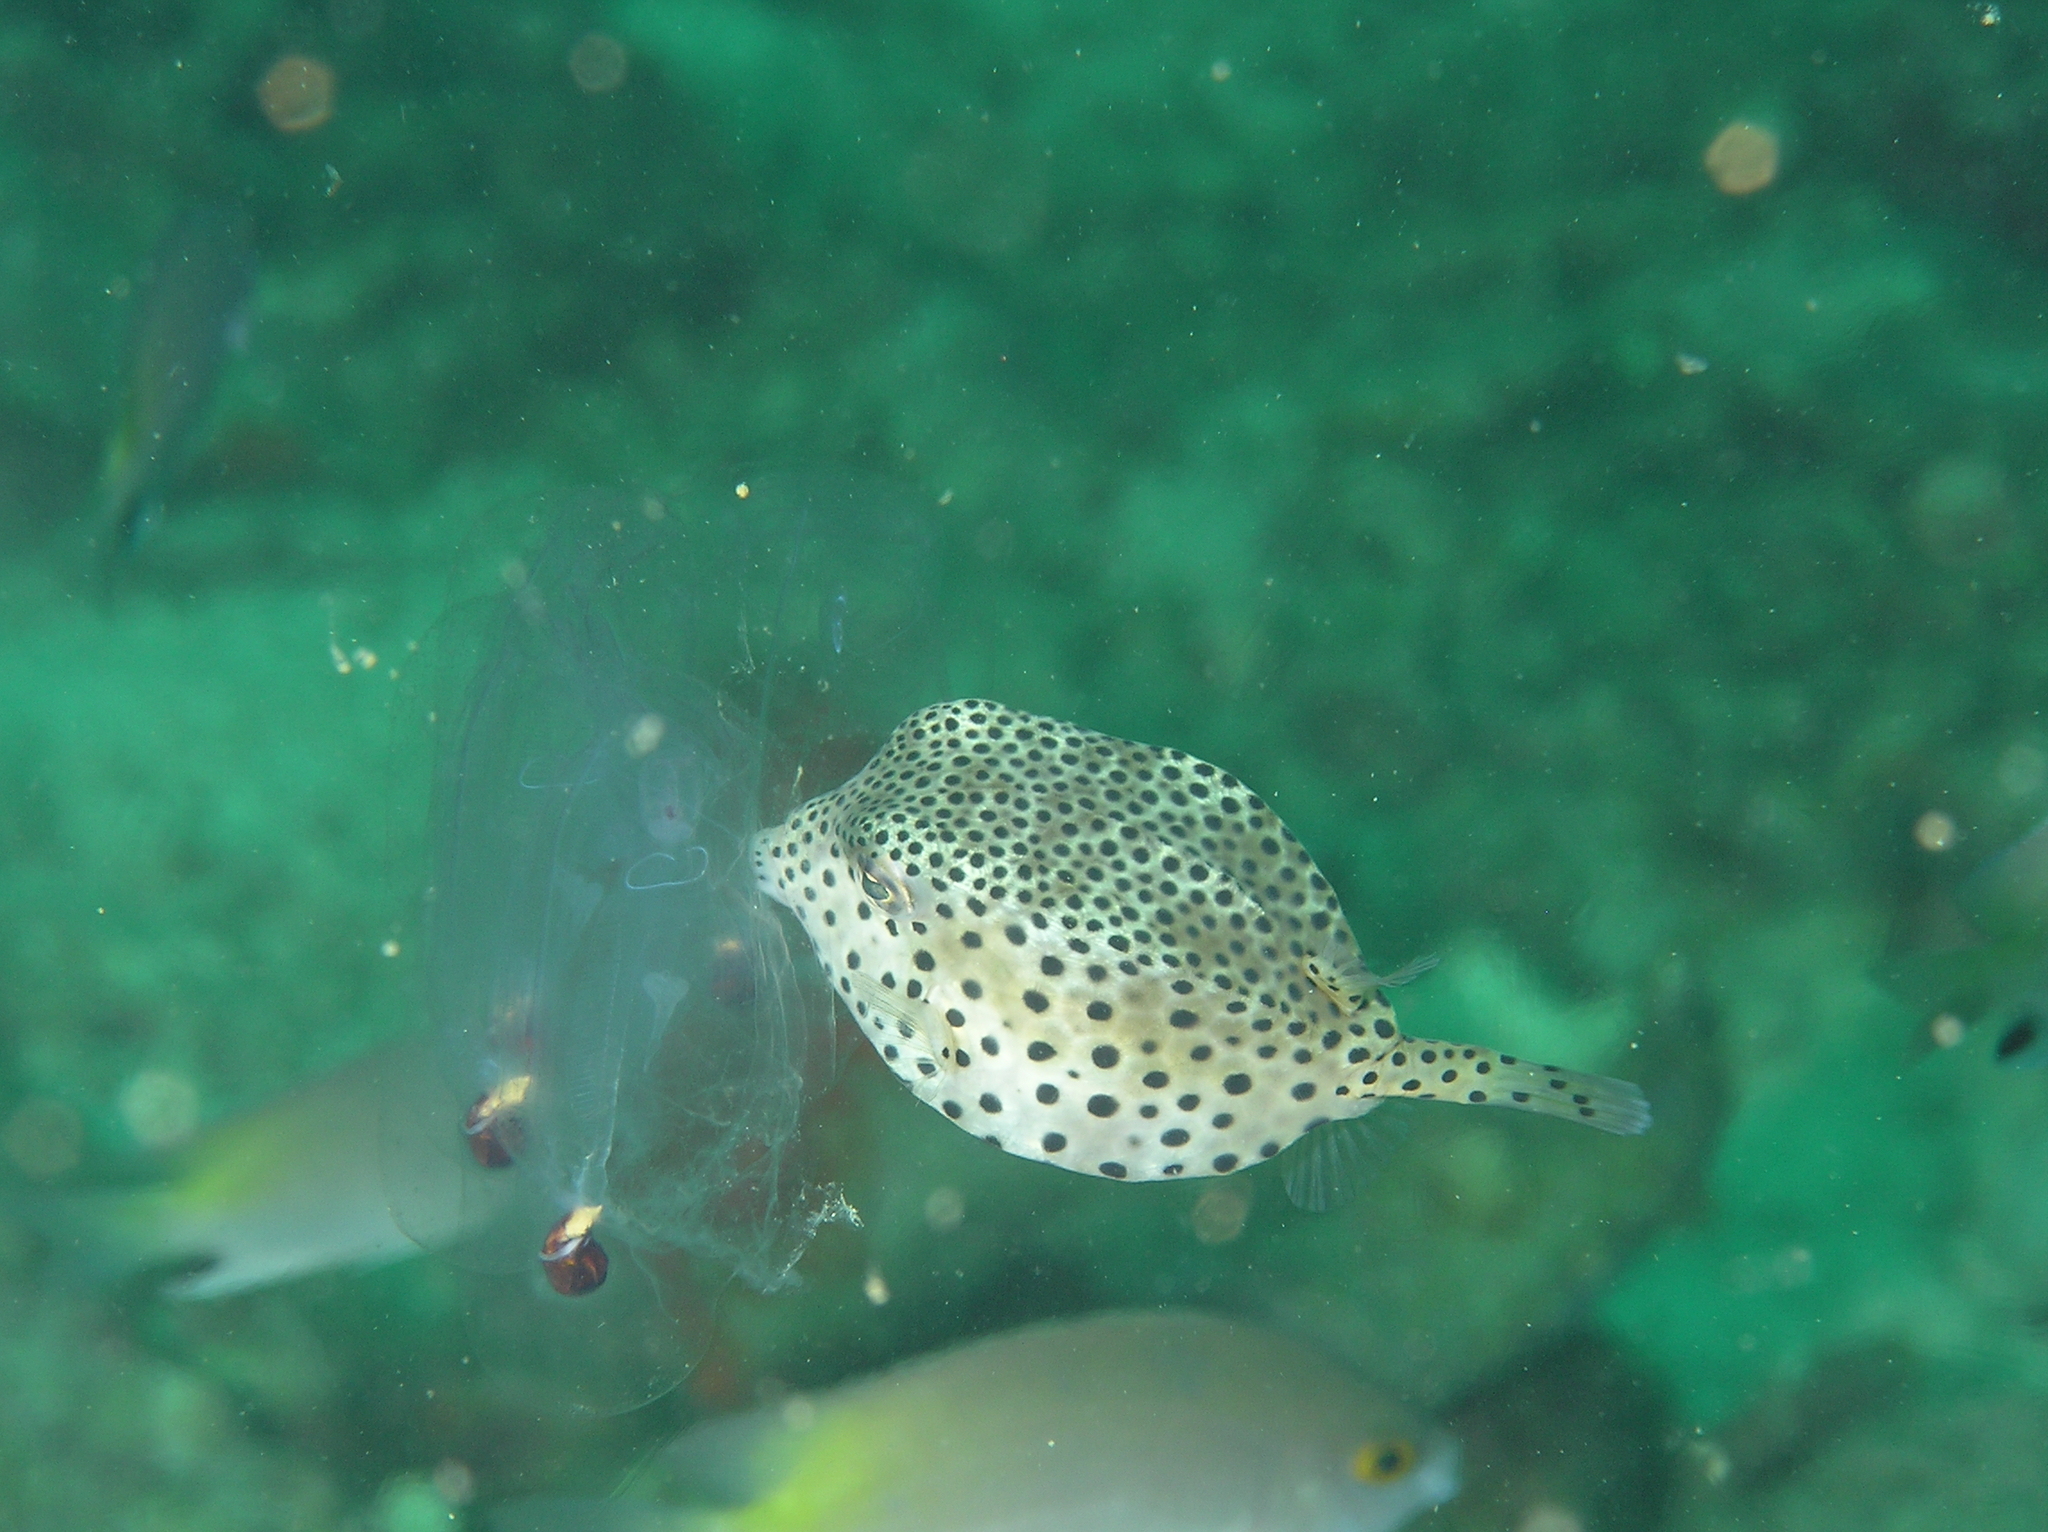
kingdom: Animalia
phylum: Chordata
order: Tetraodontiformes
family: Ostraciidae
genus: Ostracion
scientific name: Ostracion rhinorhynchos
